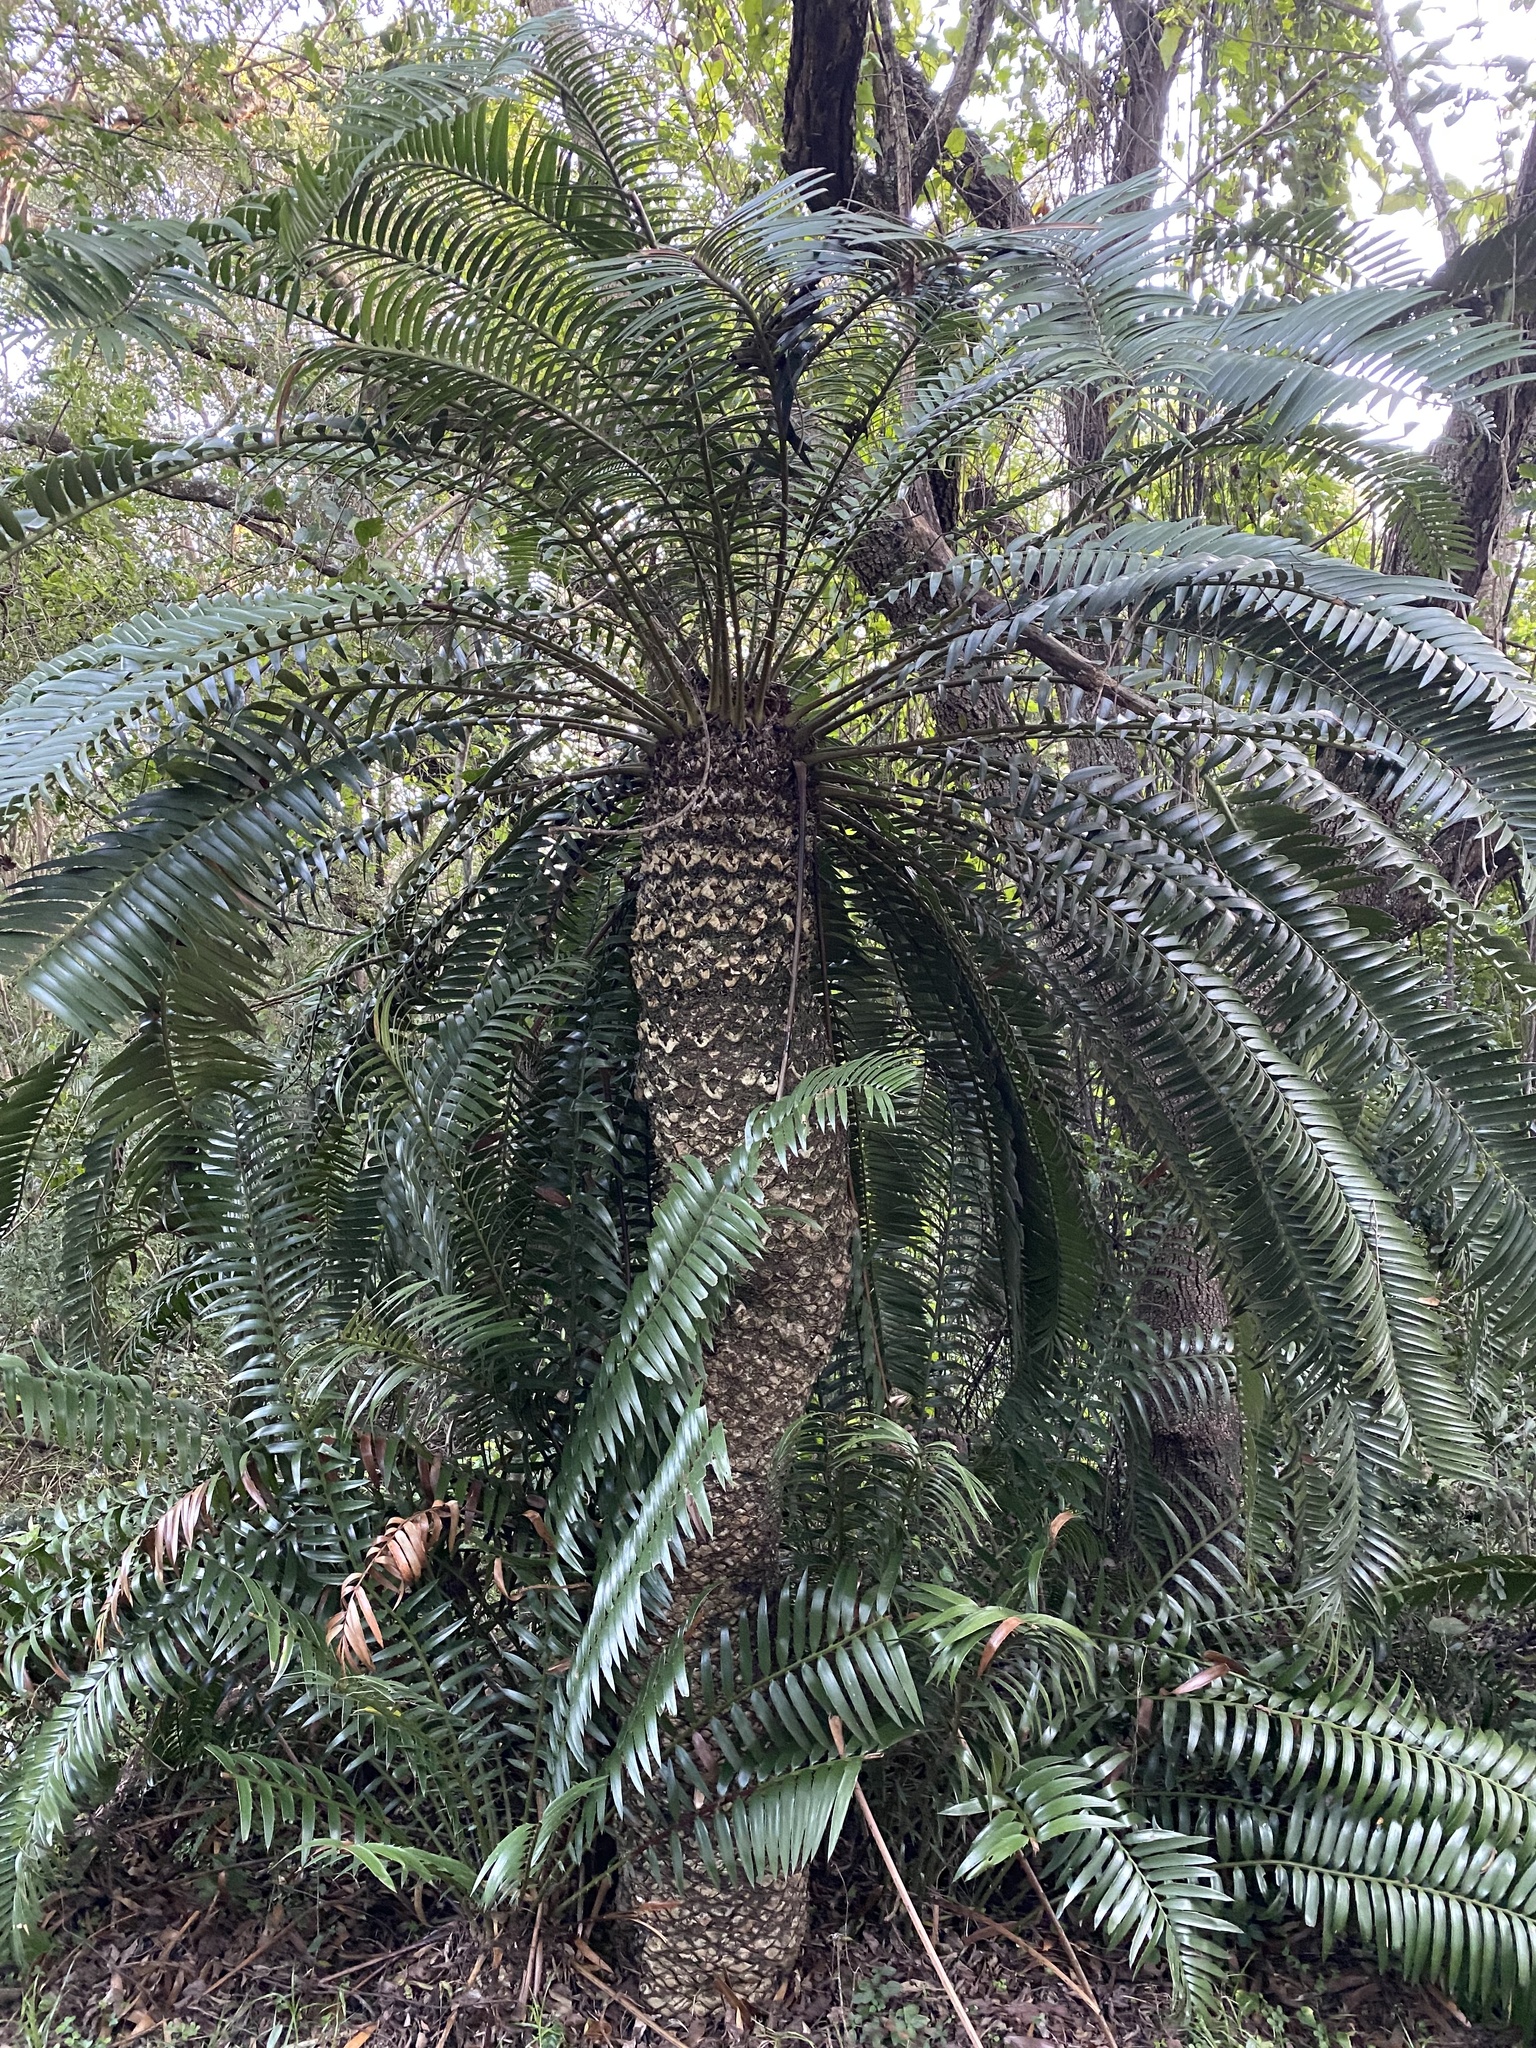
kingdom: Plantae
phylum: Tracheophyta
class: Cycadopsida
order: Cycadales
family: Zamiaceae
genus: Encephalartos
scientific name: Encephalartos natalensis
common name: Natal cycad
